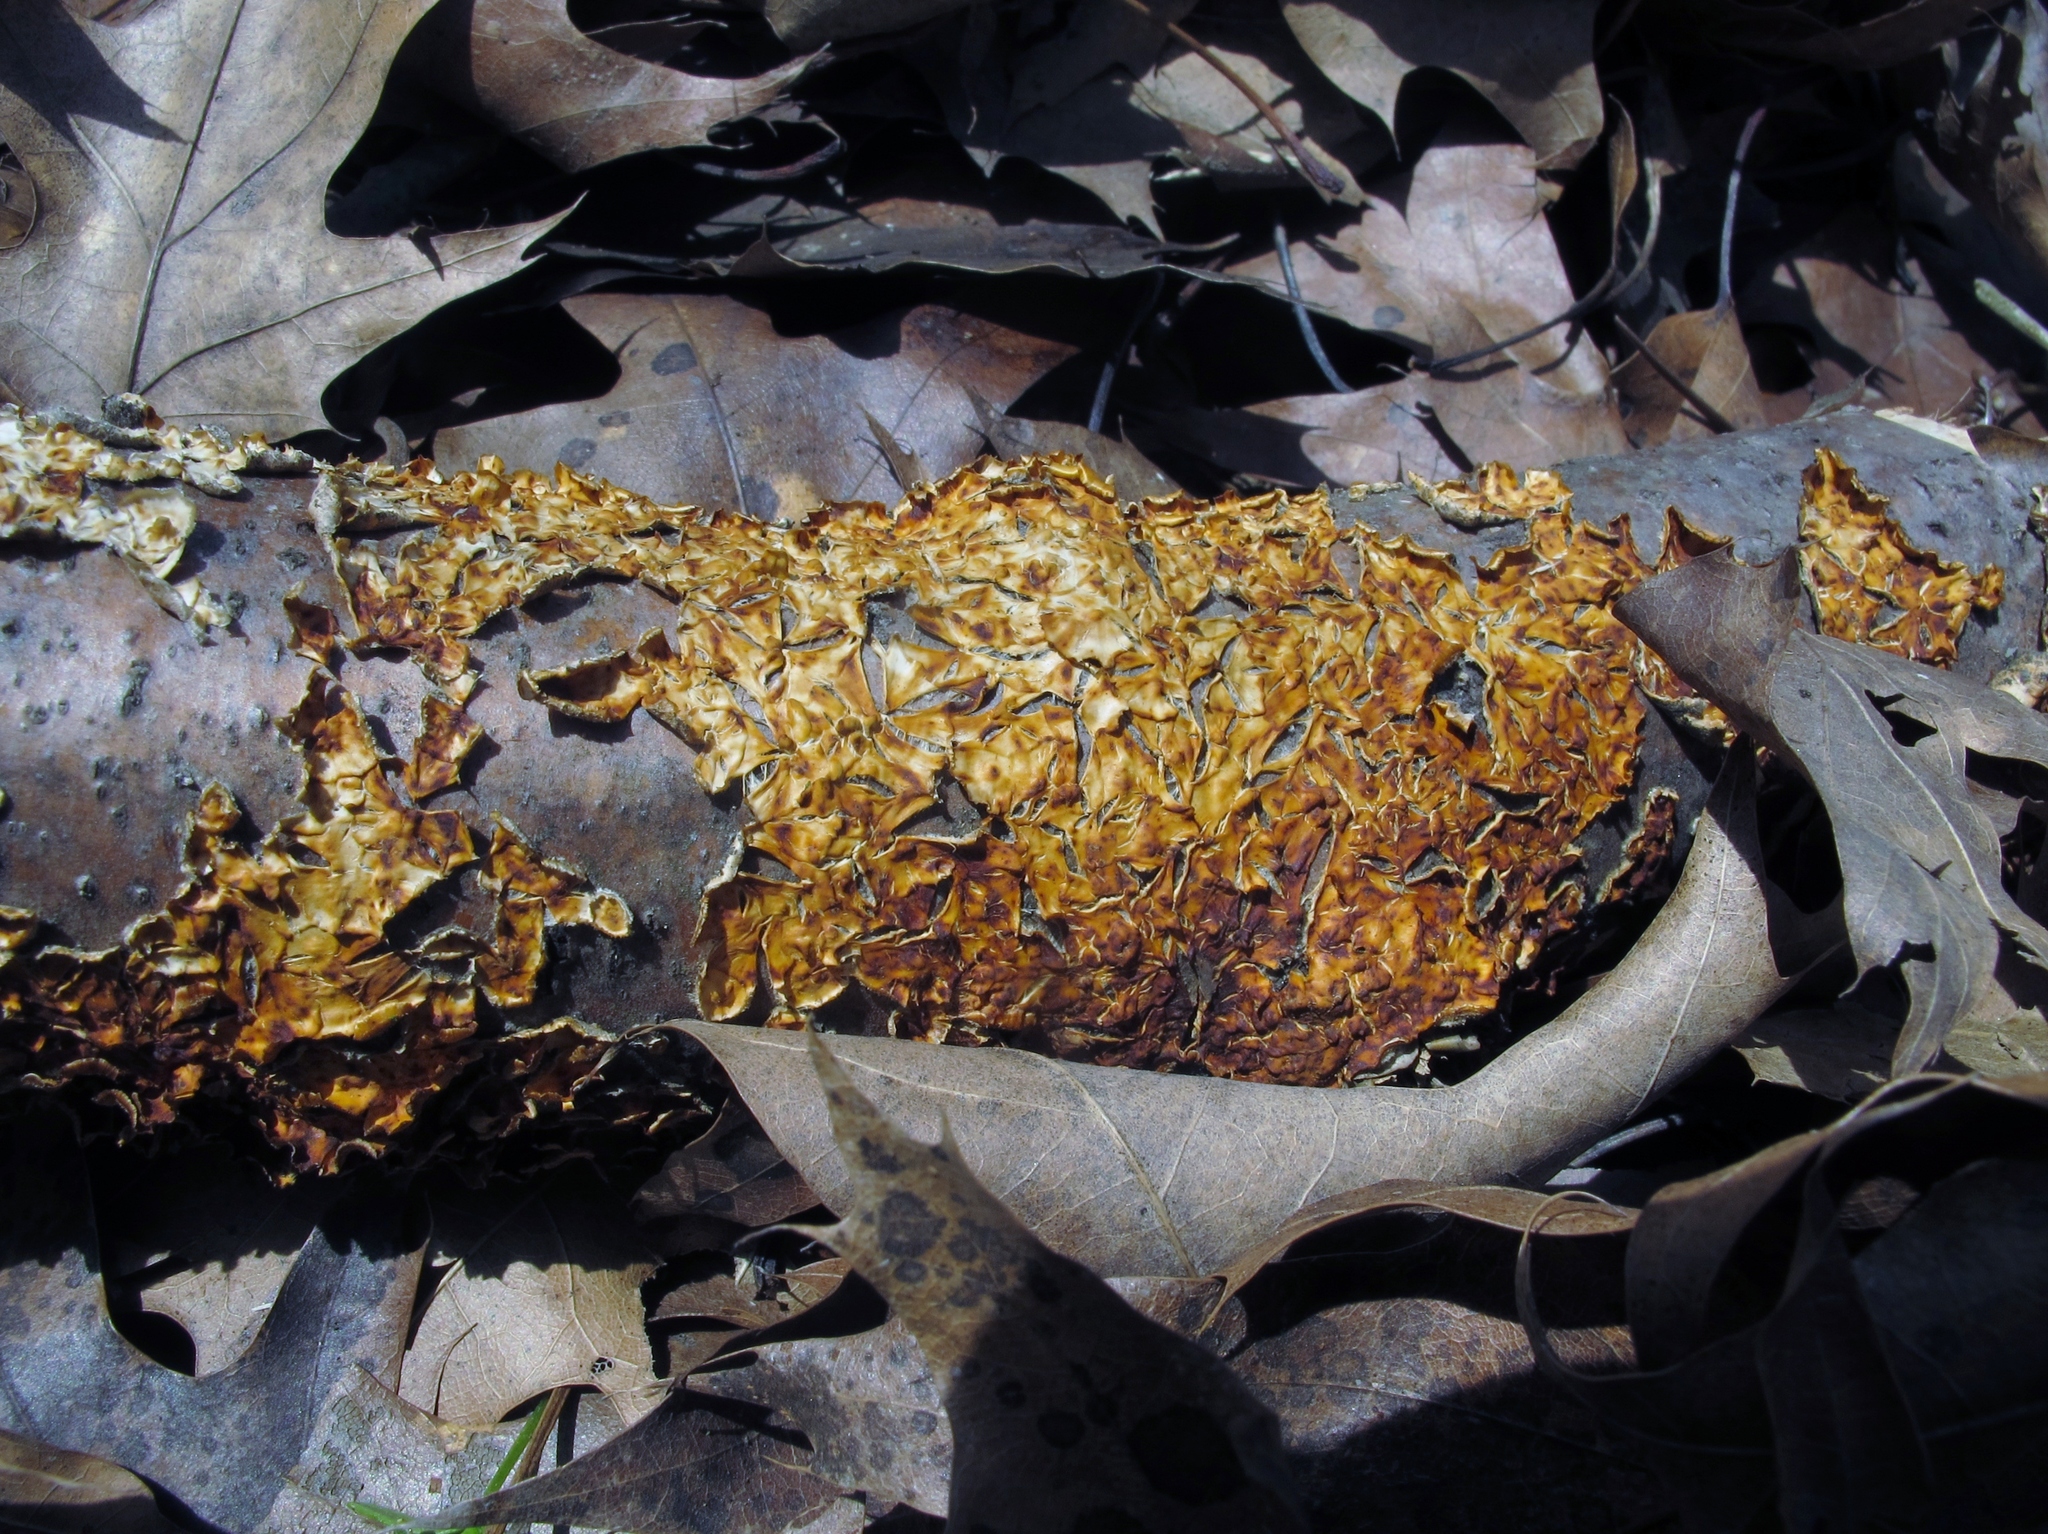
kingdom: Fungi
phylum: Basidiomycota
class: Agaricomycetes
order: Russulales
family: Stereaceae
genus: Stereum
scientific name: Stereum complicatum
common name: Crowded parchment
